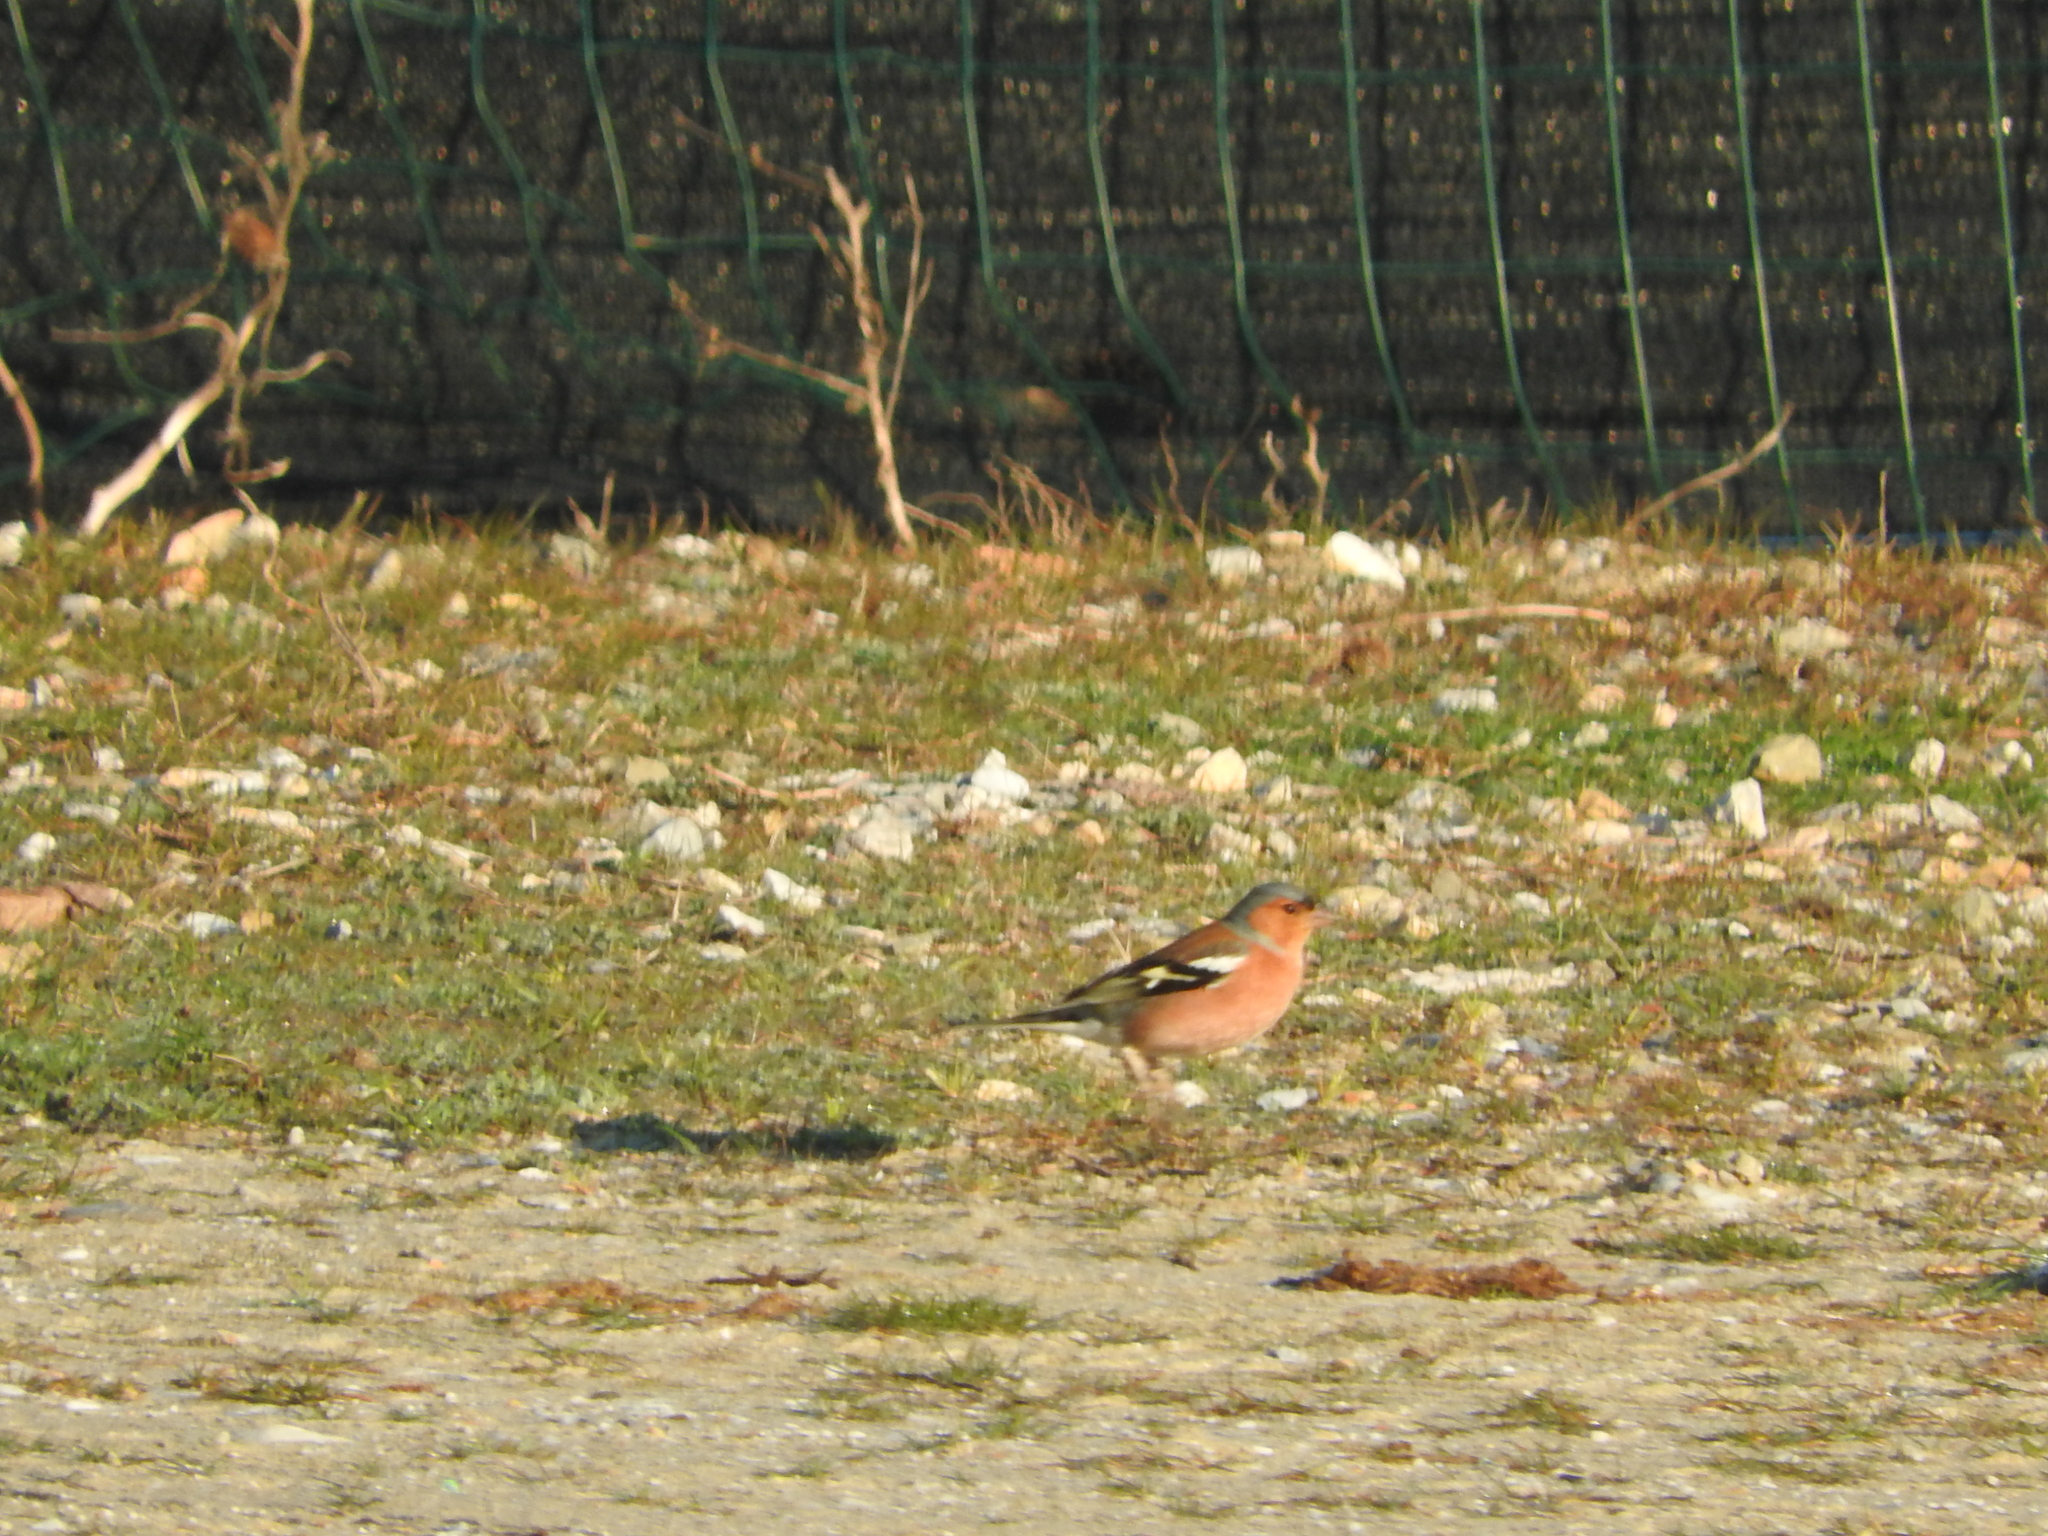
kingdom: Animalia
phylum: Chordata
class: Aves
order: Passeriformes
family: Fringillidae
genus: Fringilla
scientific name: Fringilla coelebs
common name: Common chaffinch
